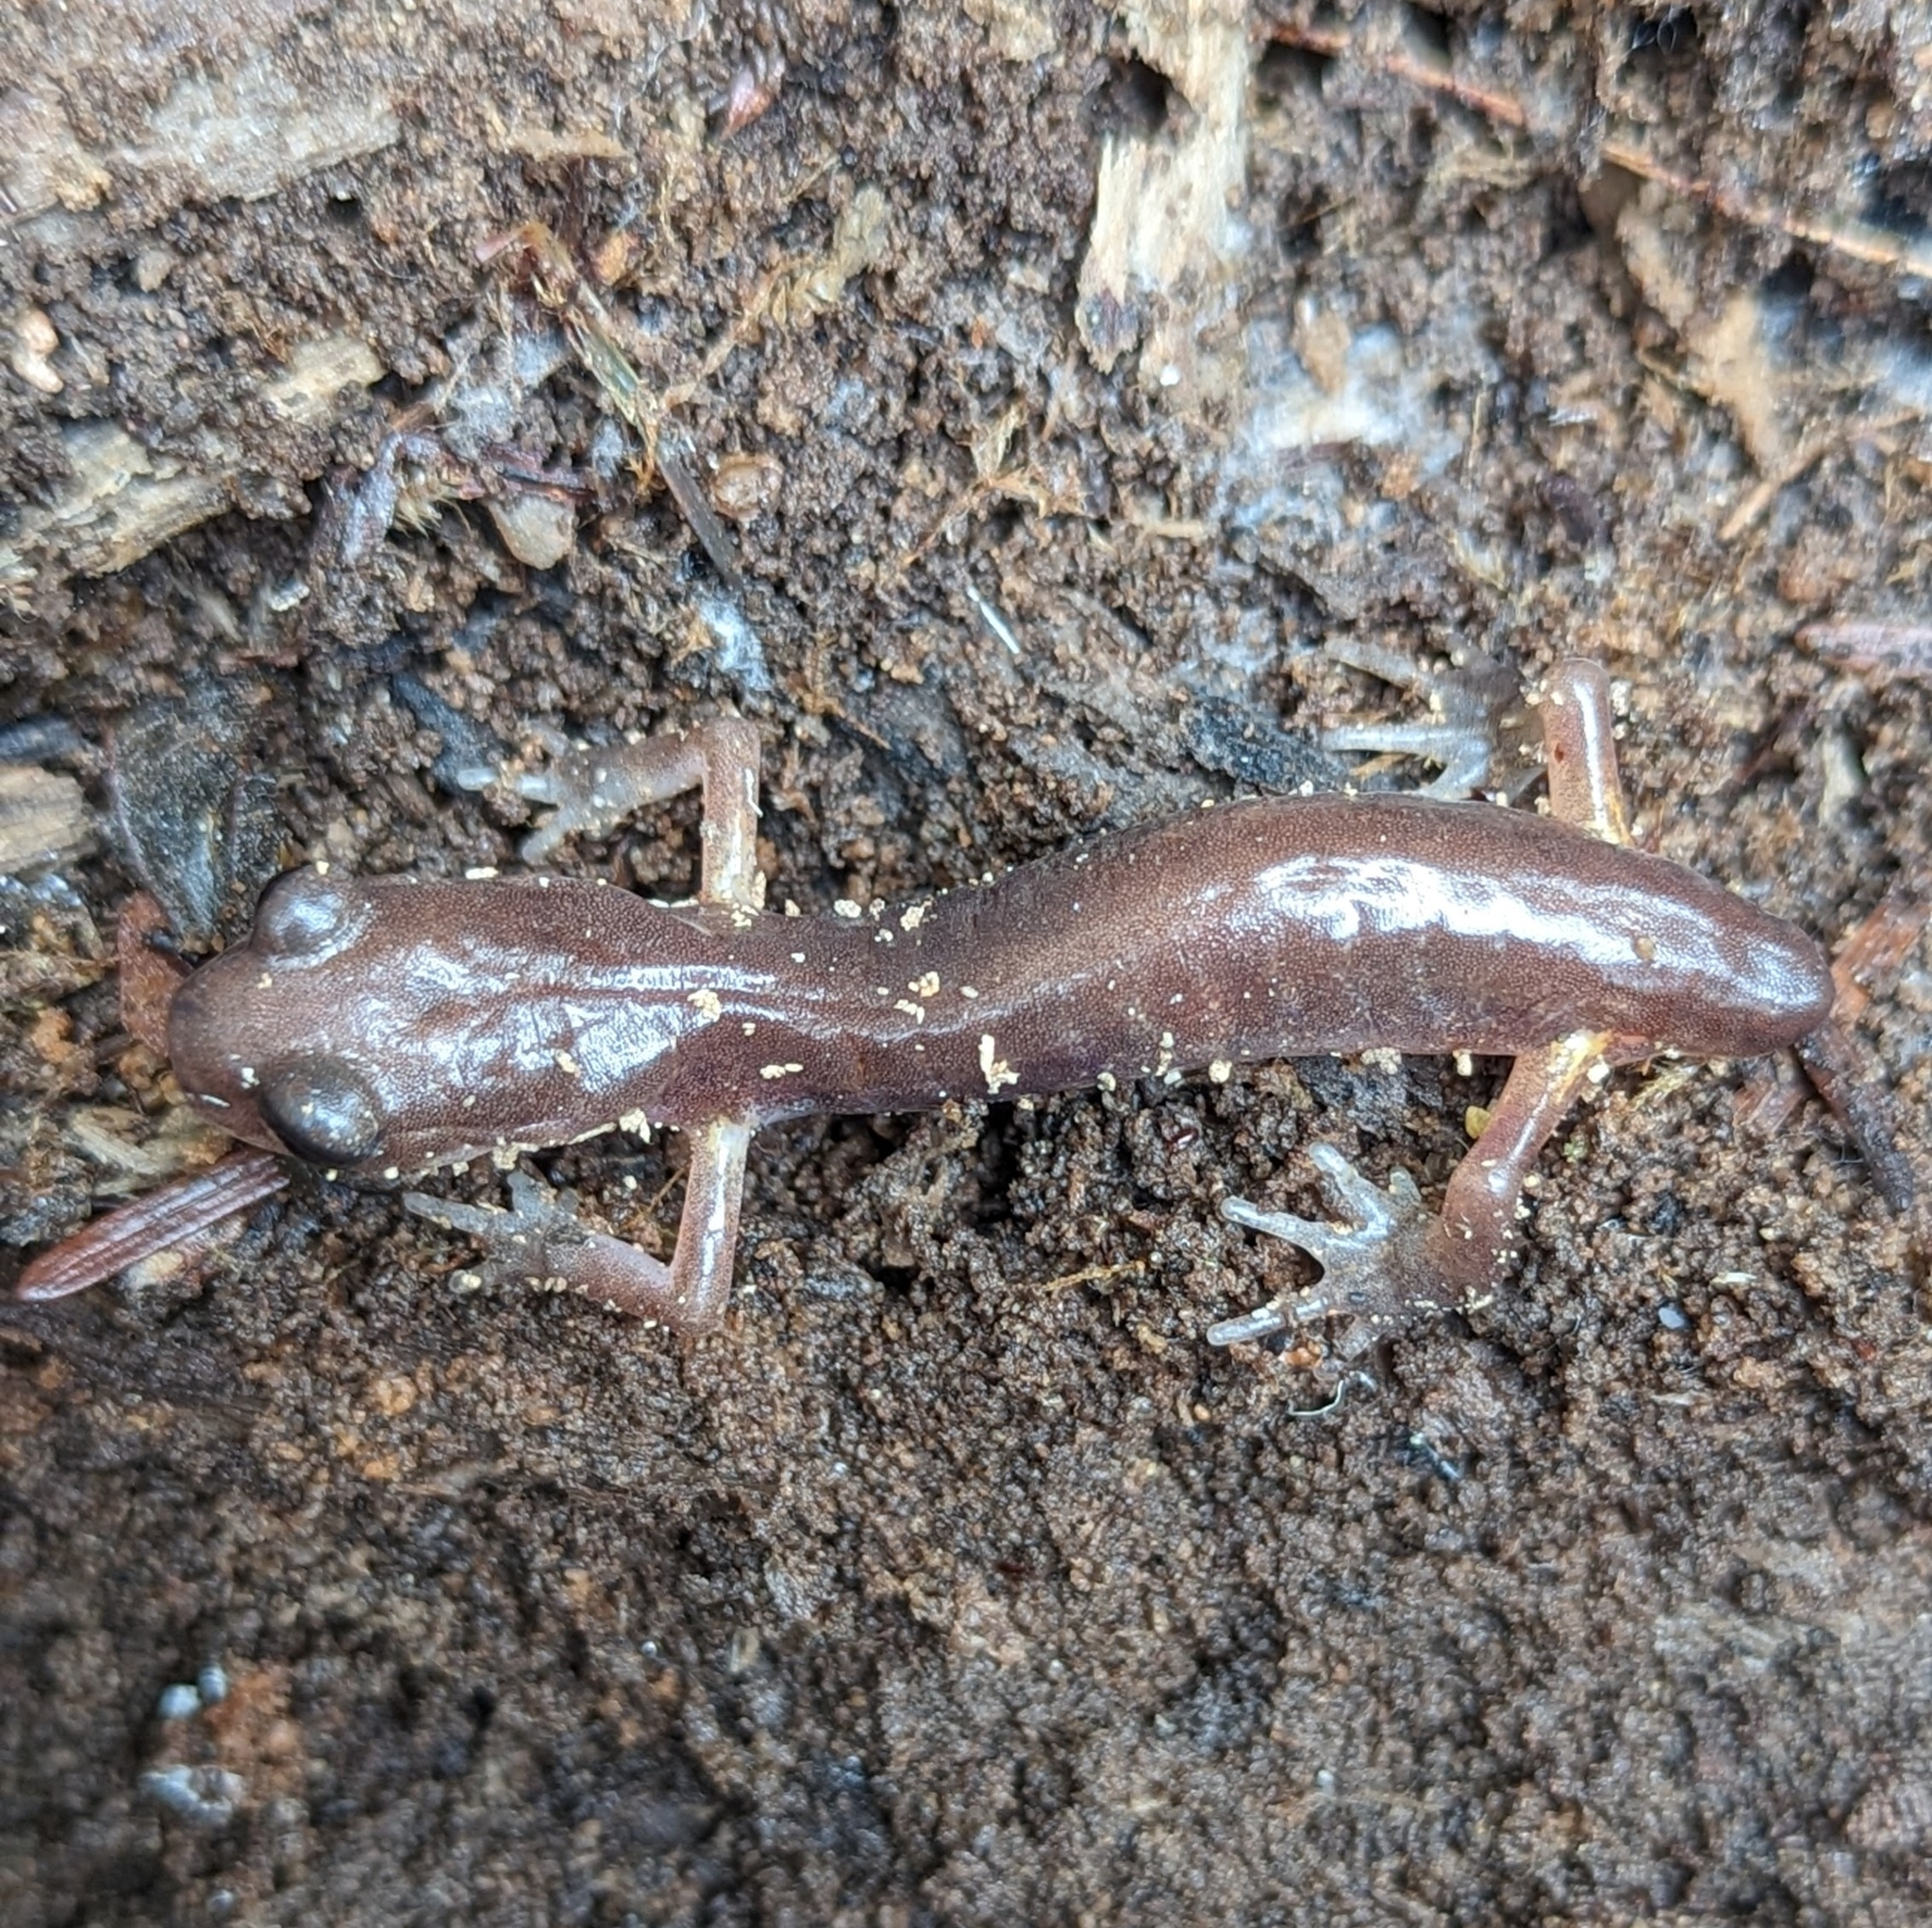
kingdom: Animalia
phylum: Chordata
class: Amphibia
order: Caudata
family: Plethodontidae
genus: Ensatina
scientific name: Ensatina eschscholtzii
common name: Ensatina
